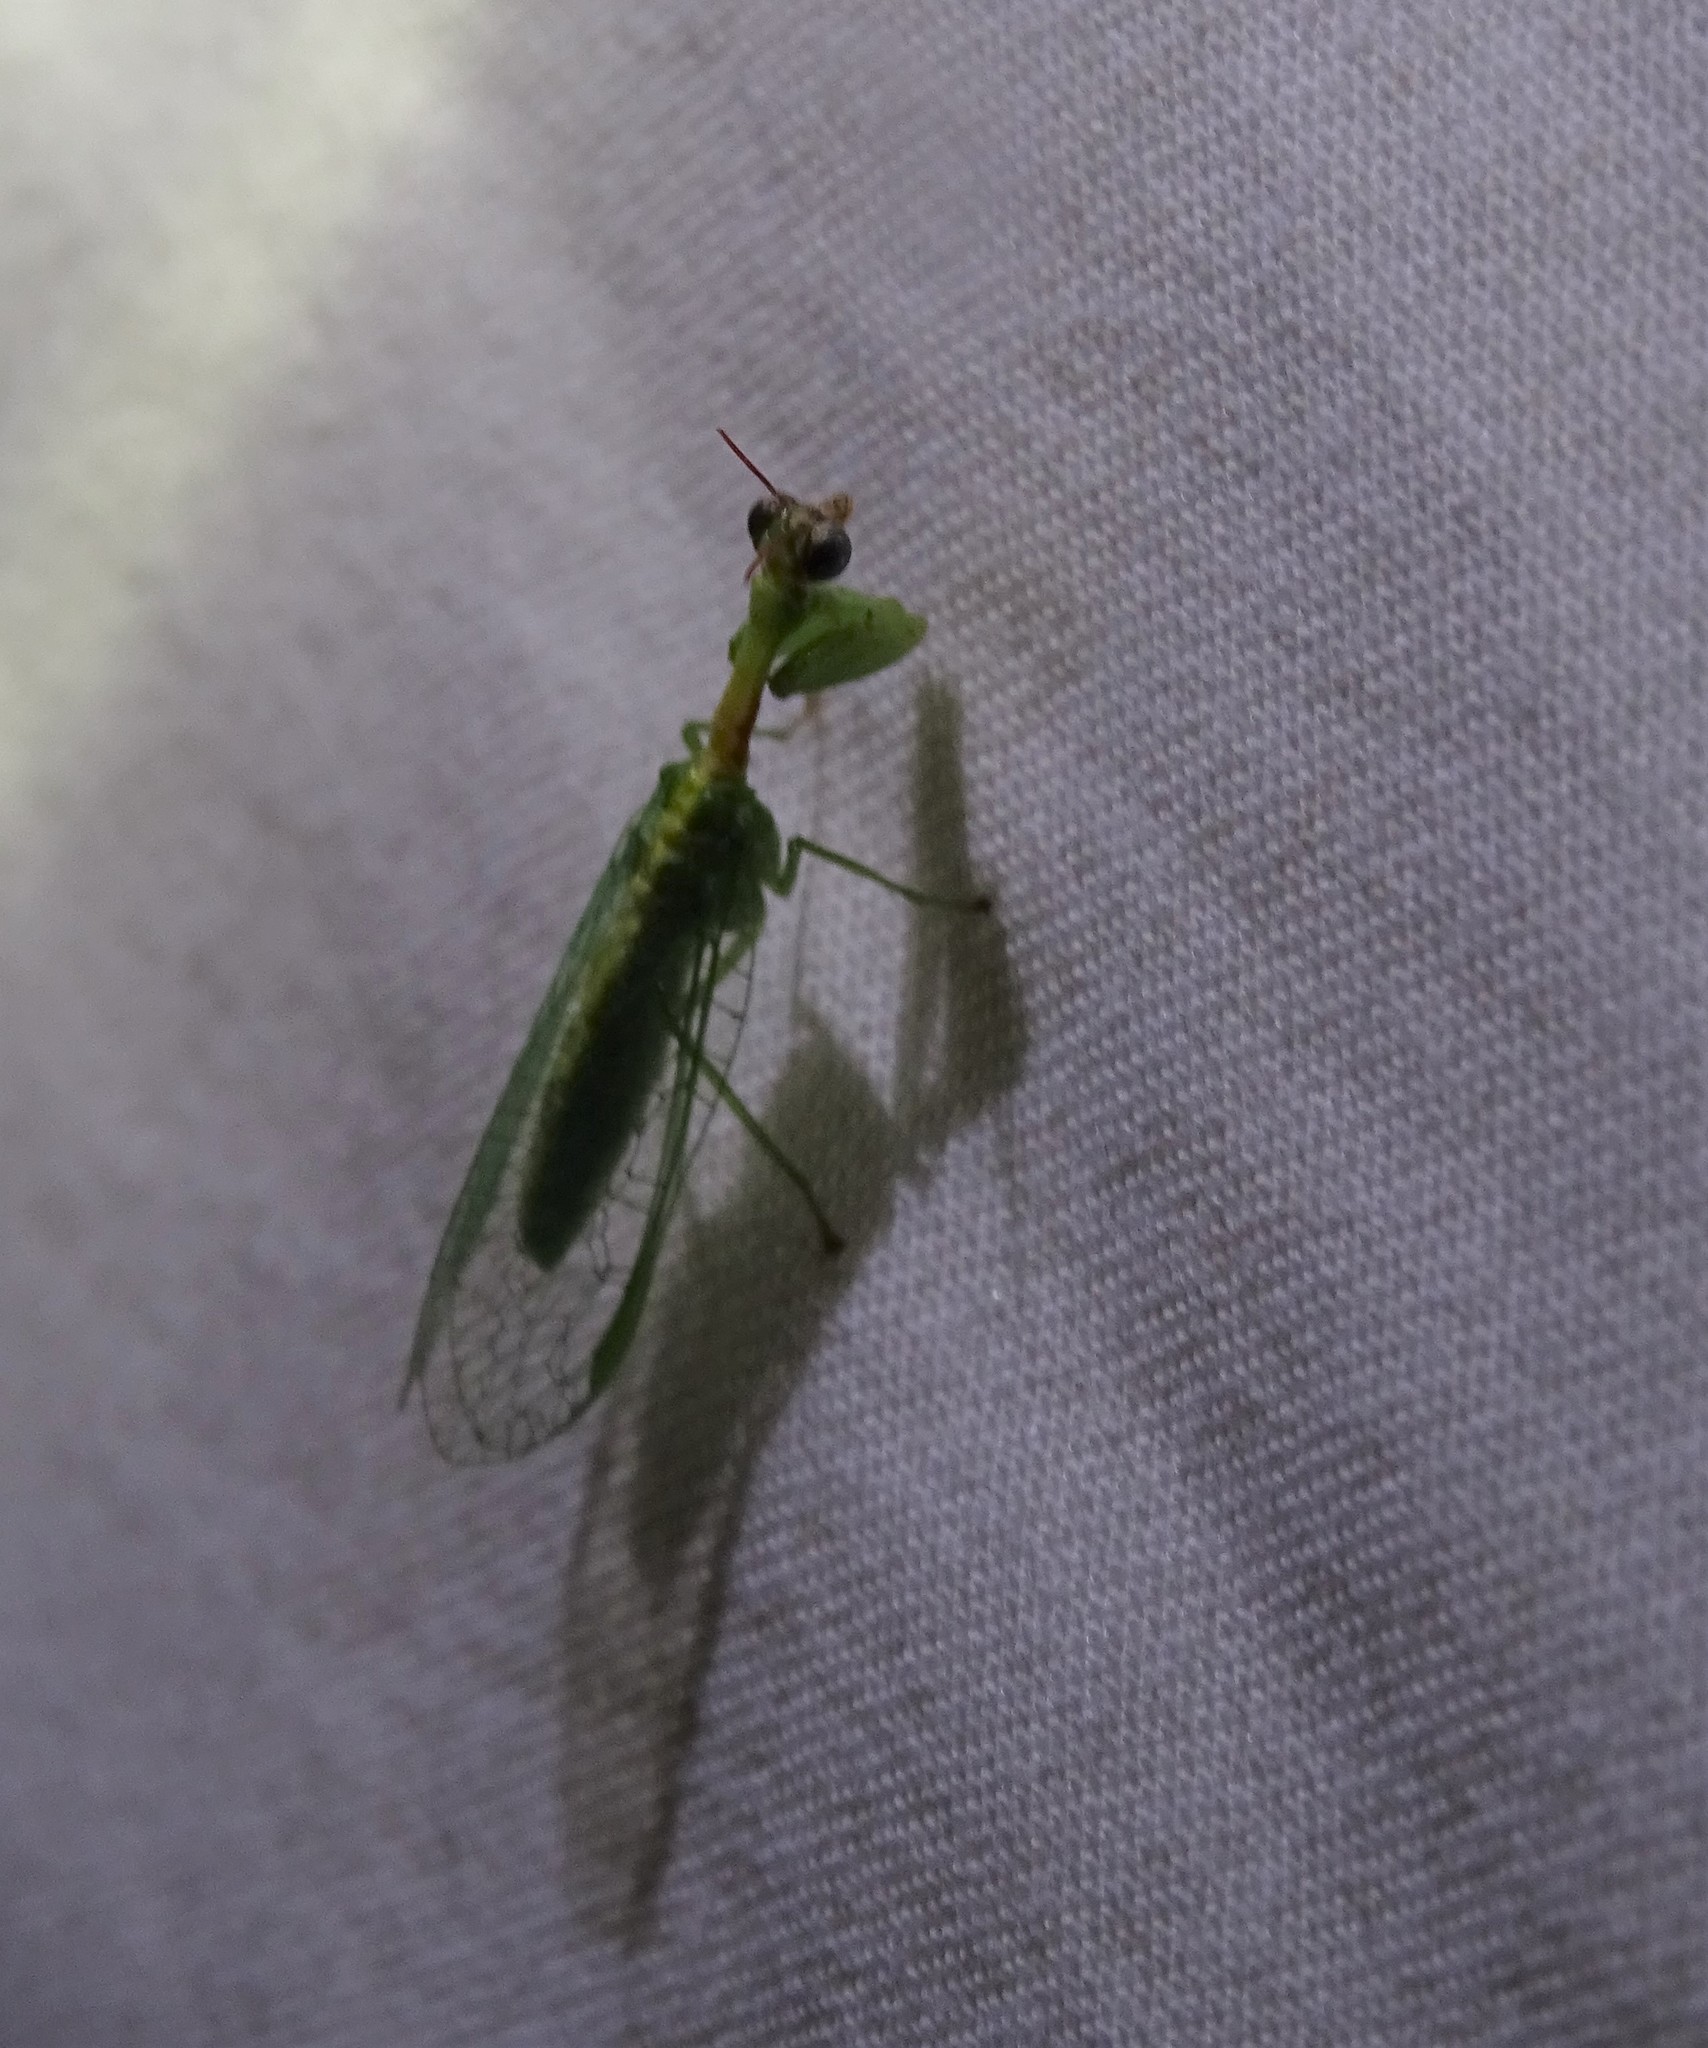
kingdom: Animalia
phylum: Arthropoda
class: Insecta
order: Neuroptera
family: Mantispidae
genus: Zeugomantispa
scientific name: Zeugomantispa minuta
